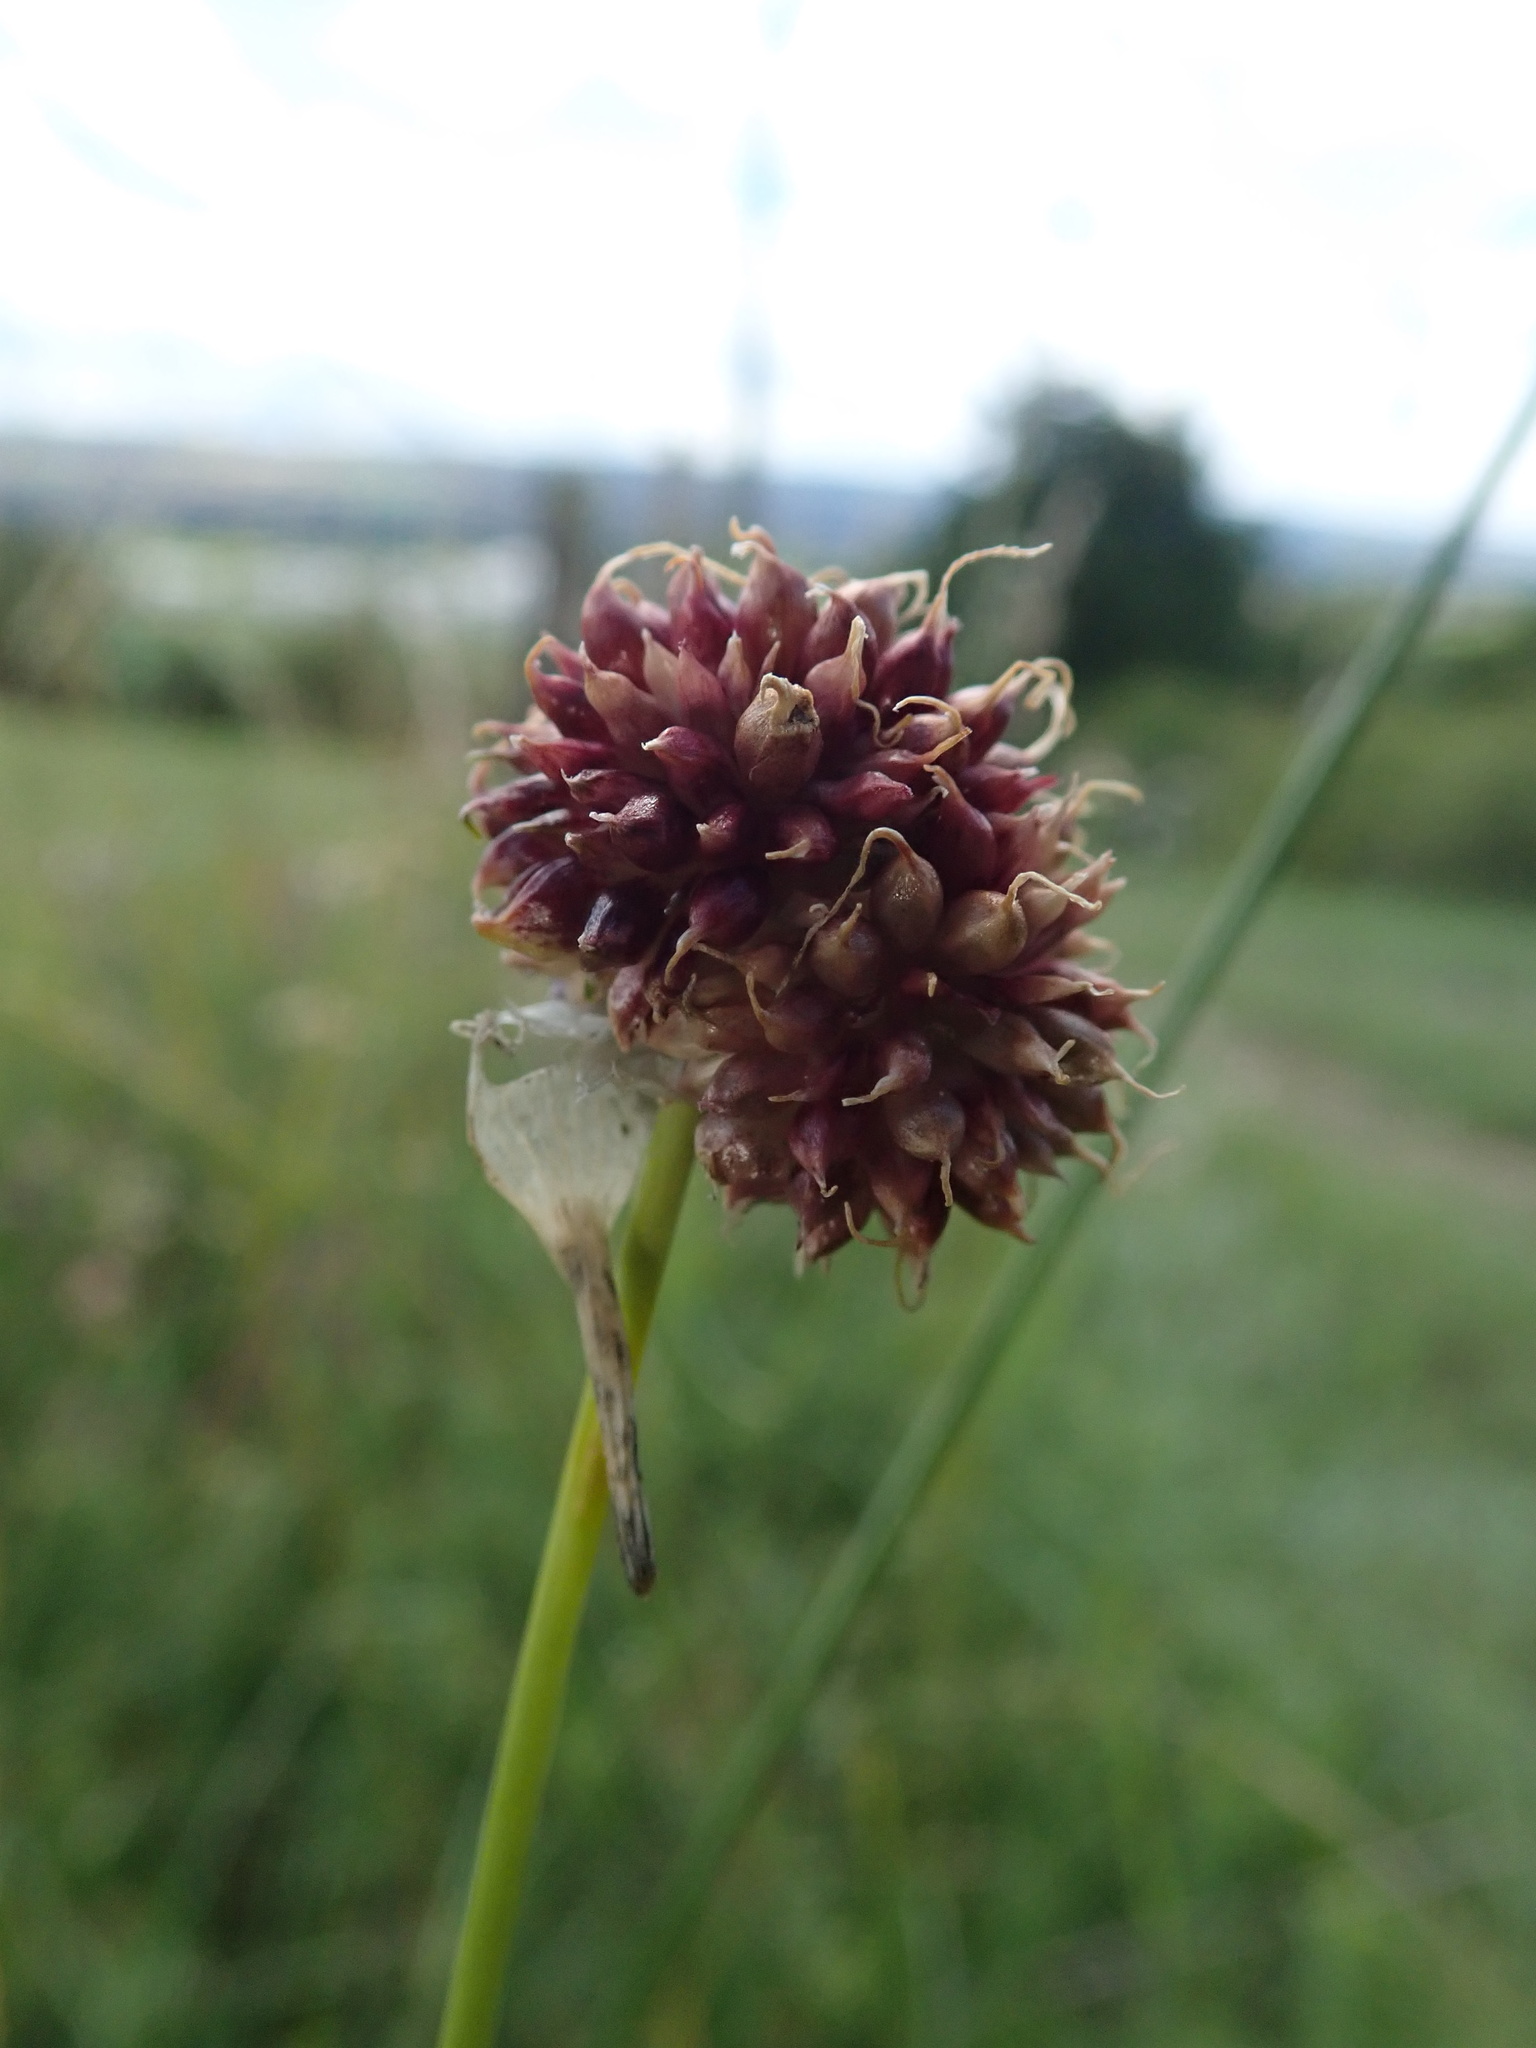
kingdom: Plantae
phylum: Tracheophyta
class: Liliopsida
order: Asparagales
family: Amaryllidaceae
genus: Allium
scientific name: Allium vineale
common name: Crow garlic
